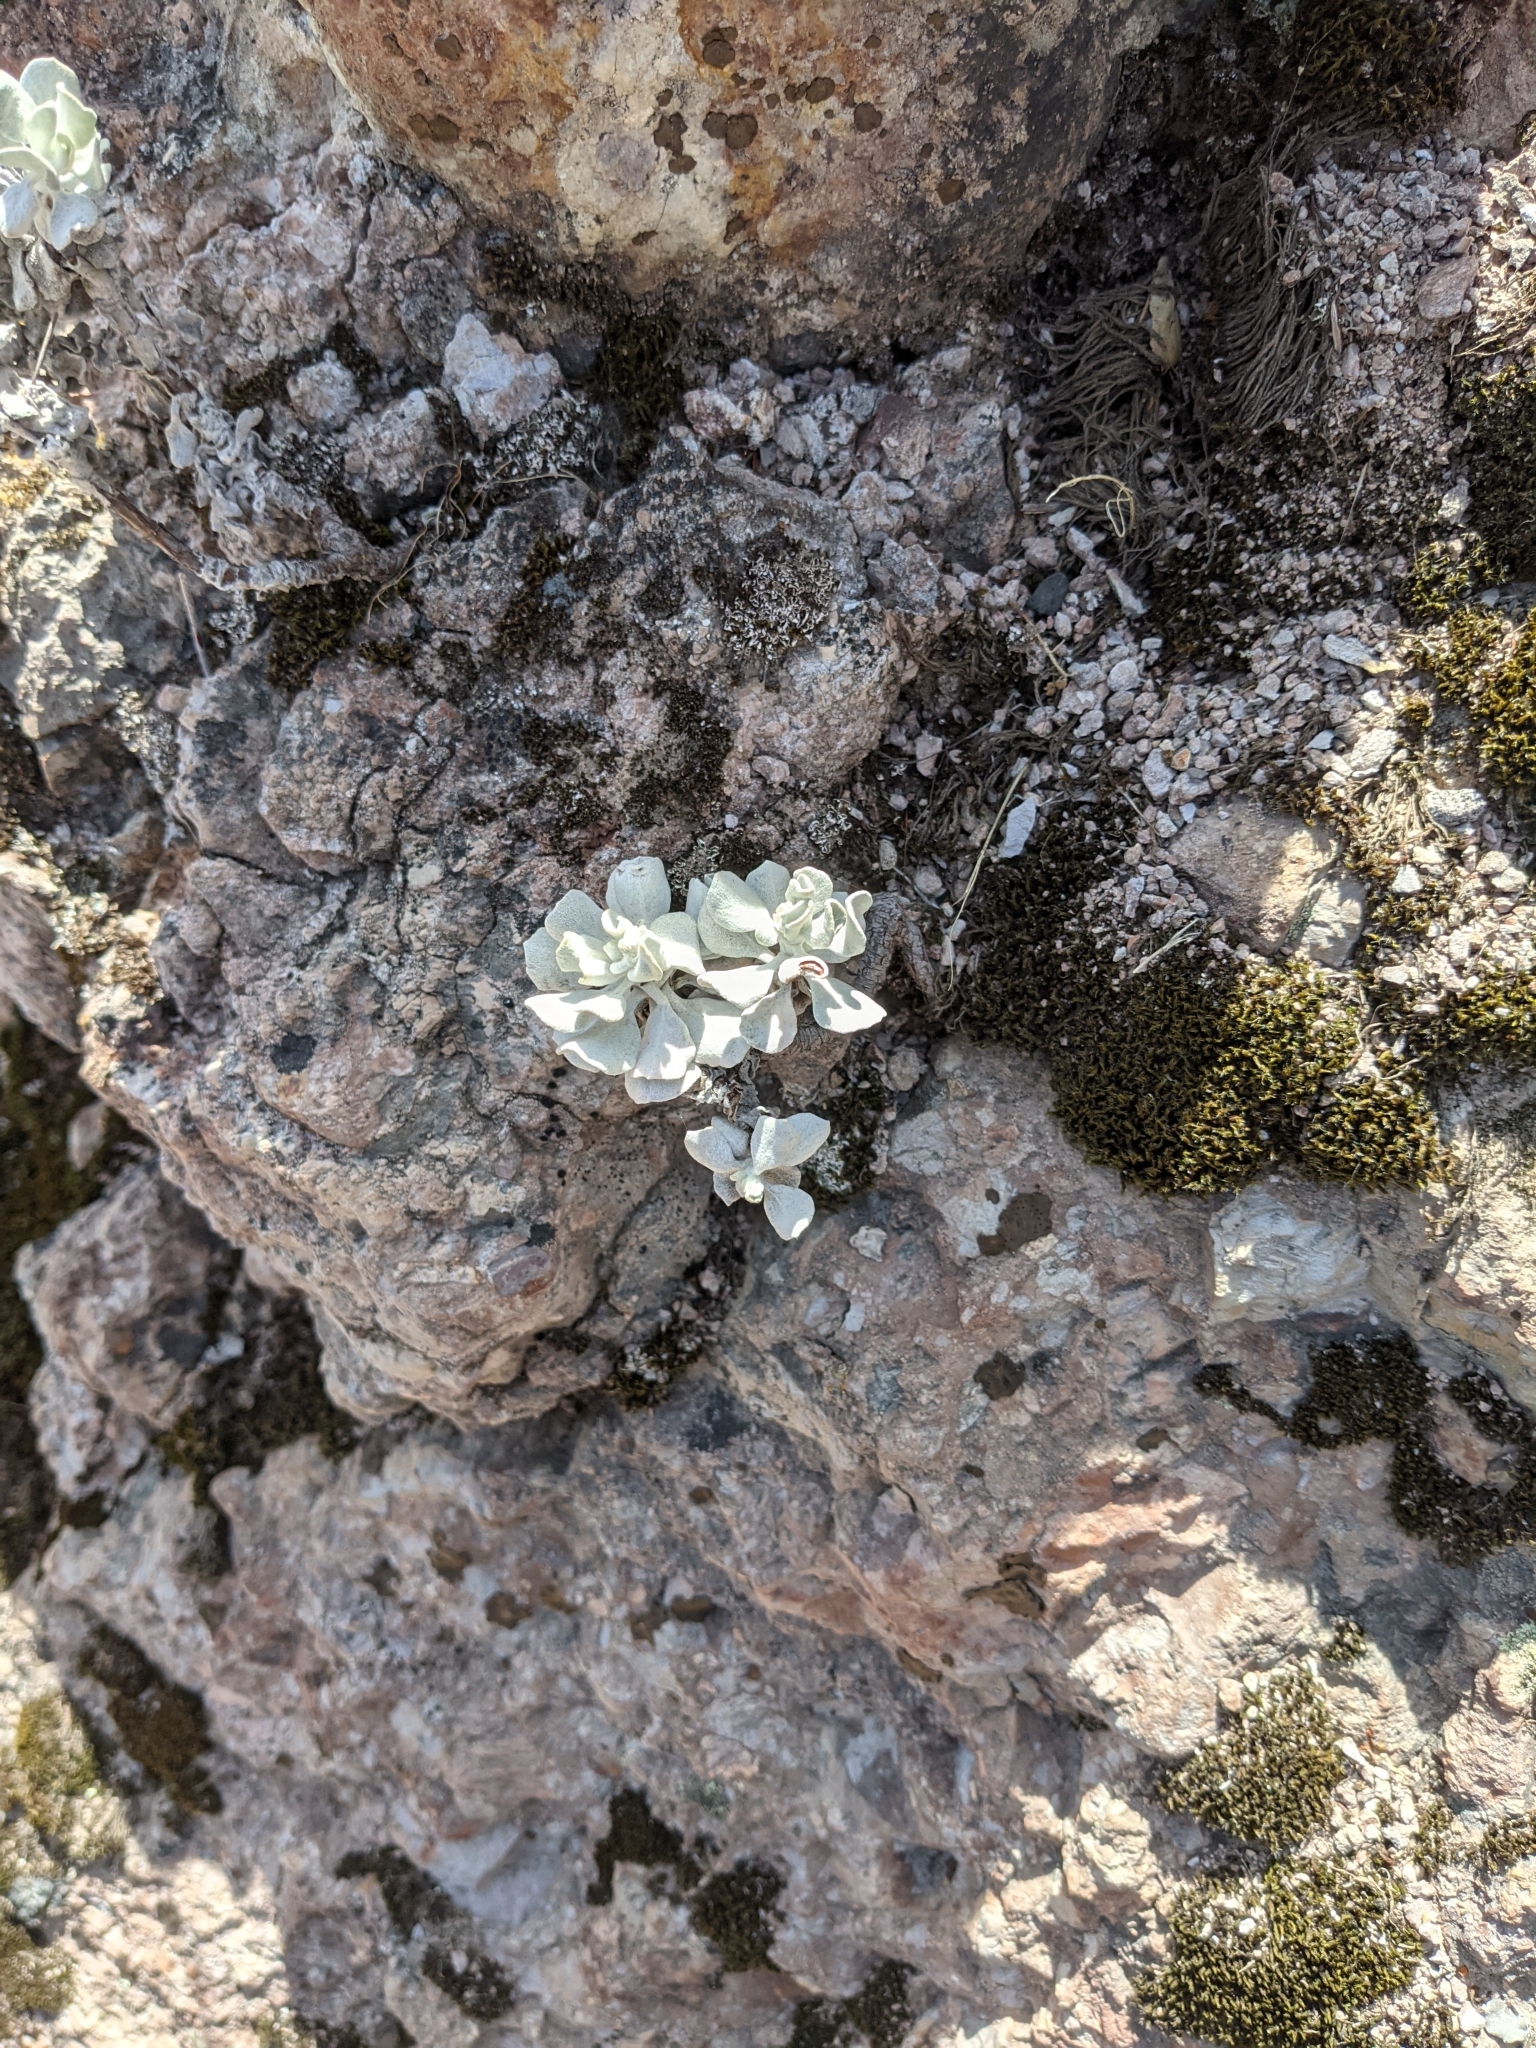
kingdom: Plantae
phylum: Tracheophyta
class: Magnoliopsida
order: Caryophyllales
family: Polygonaceae
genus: Eriogonum
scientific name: Eriogonum saxatile
